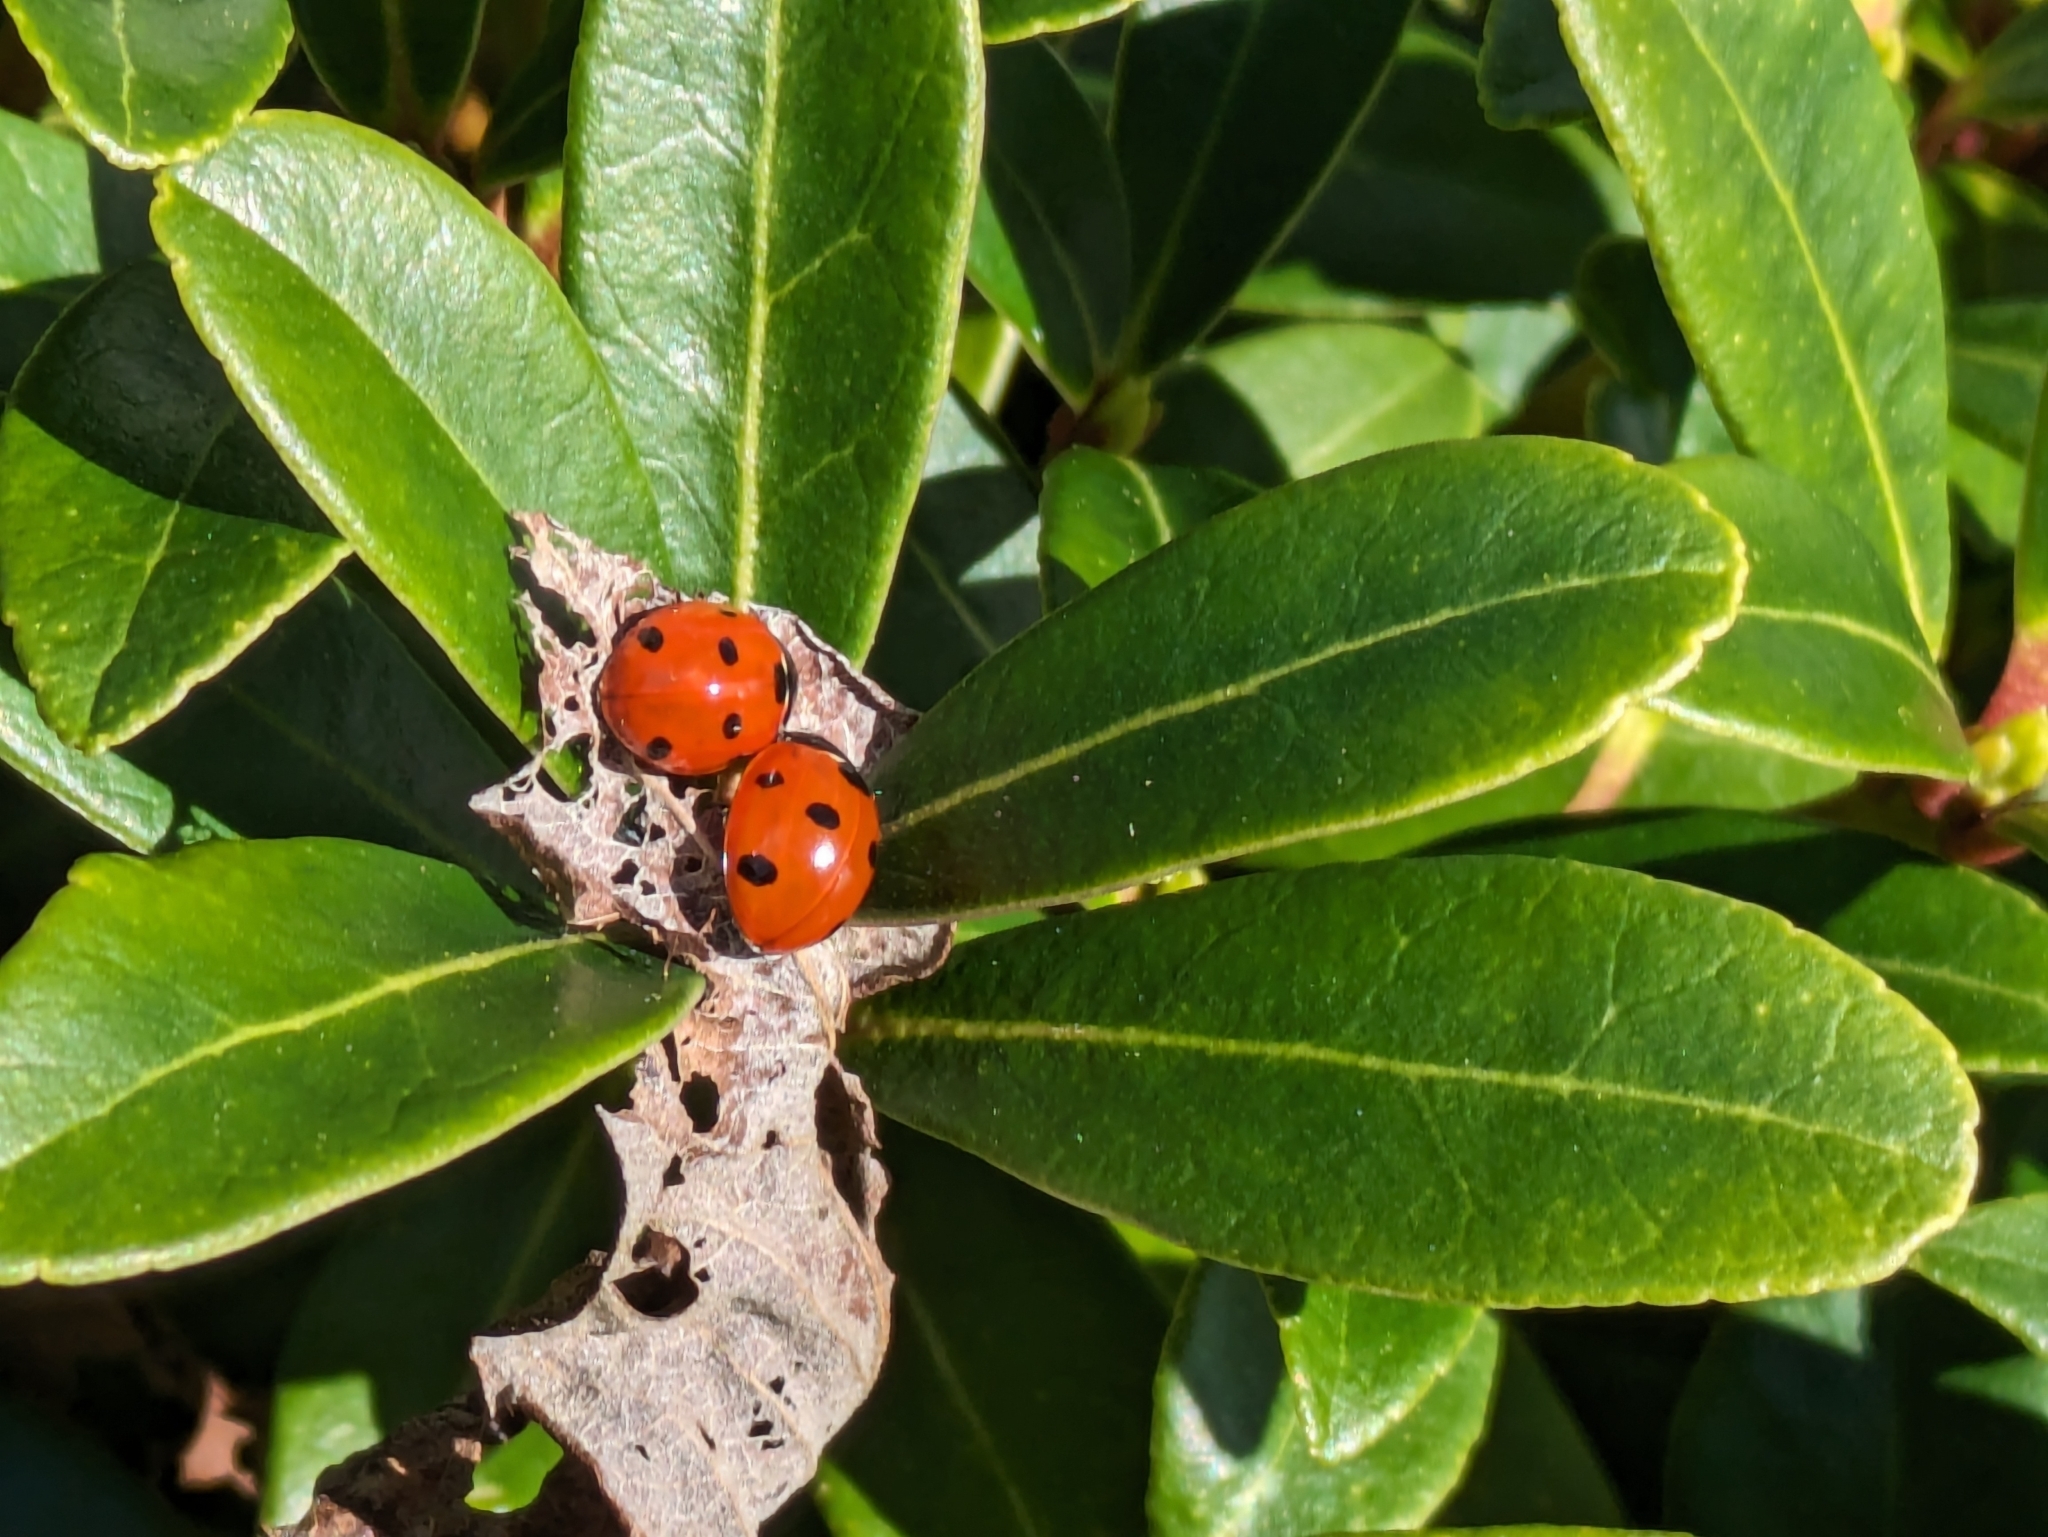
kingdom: Animalia
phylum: Arthropoda
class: Insecta
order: Coleoptera
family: Coccinellidae
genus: Coccinella
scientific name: Coccinella septempunctata
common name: Sevenspotted lady beetle
